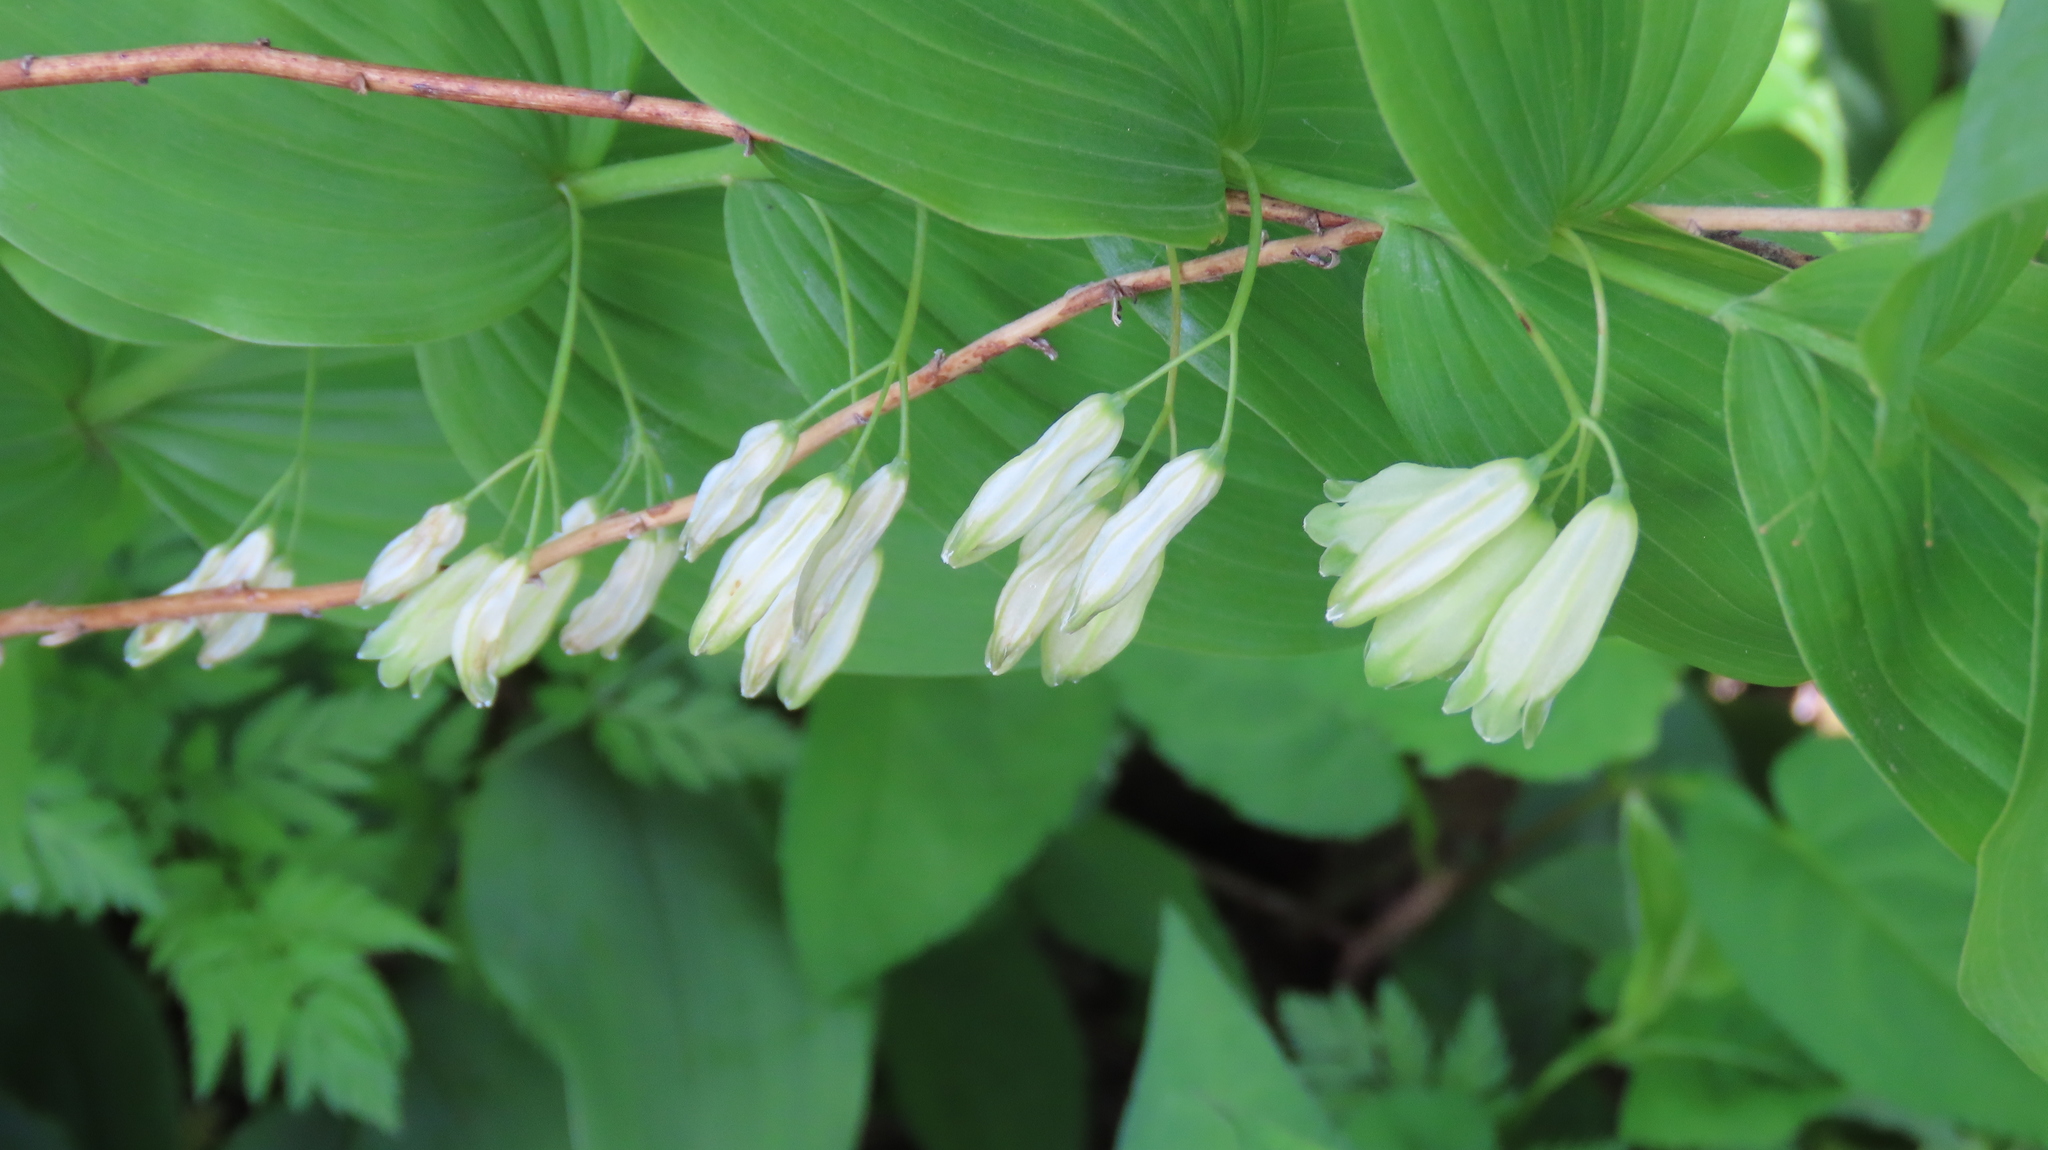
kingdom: Plantae
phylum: Tracheophyta
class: Liliopsida
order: Asparagales
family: Asparagaceae
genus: Polygonatum
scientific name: Polygonatum biflorum
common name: American solomon's-seal
